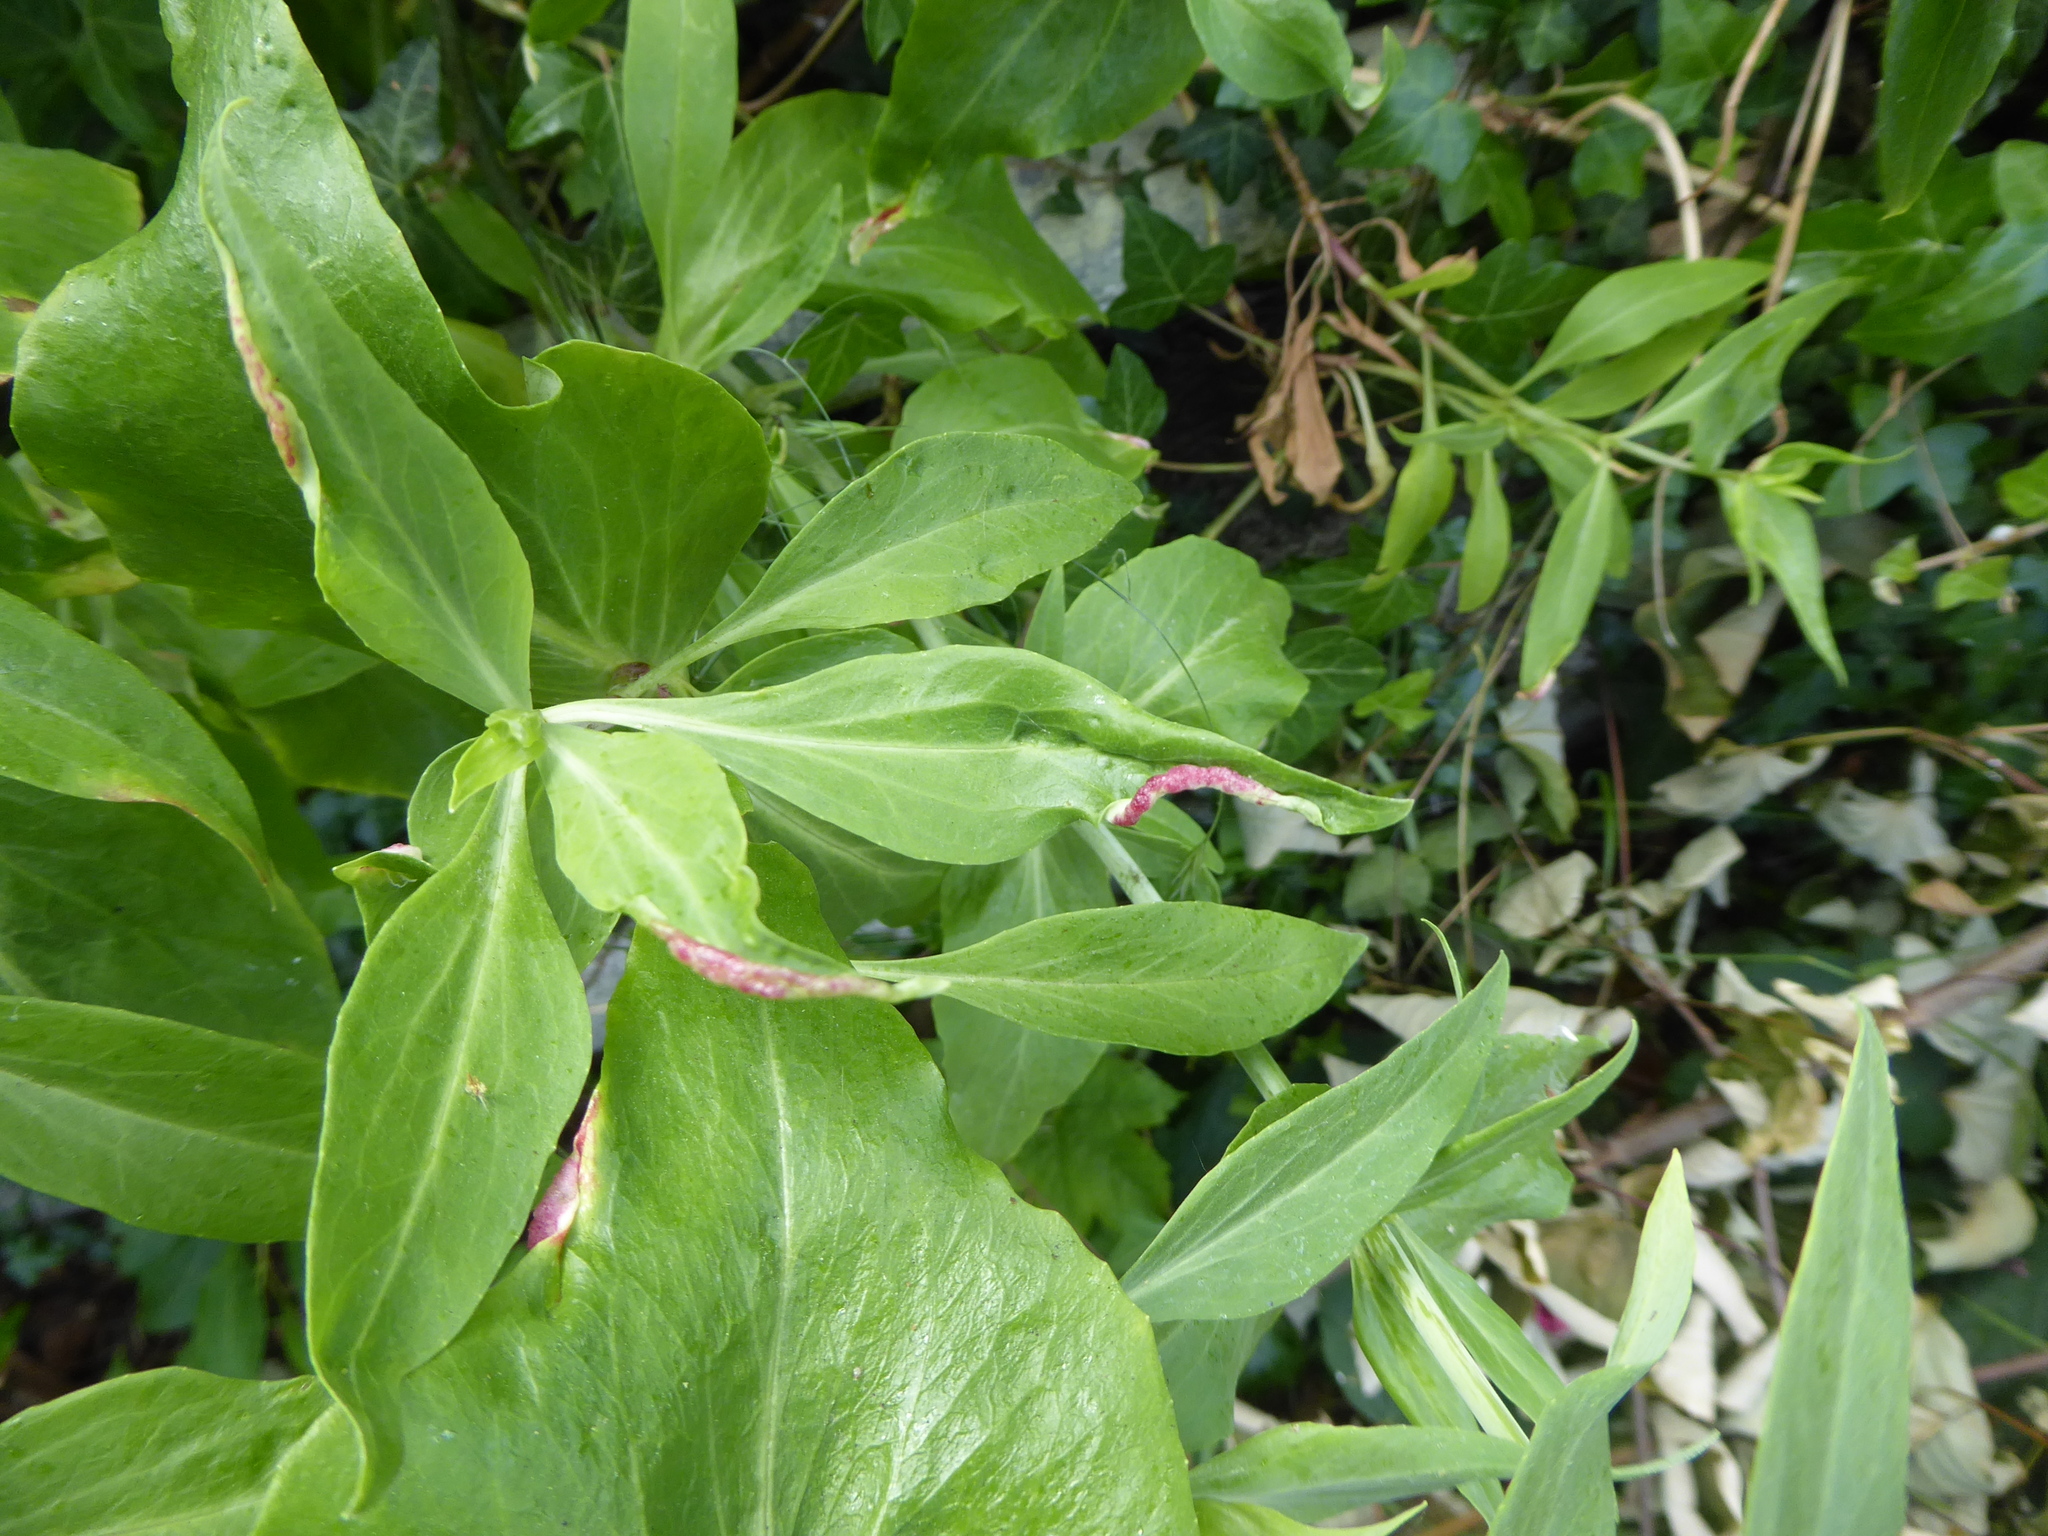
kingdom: Animalia
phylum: Arthropoda
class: Insecta
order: Hemiptera
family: Triozidae
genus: Trioza
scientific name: Trioza centranthi
